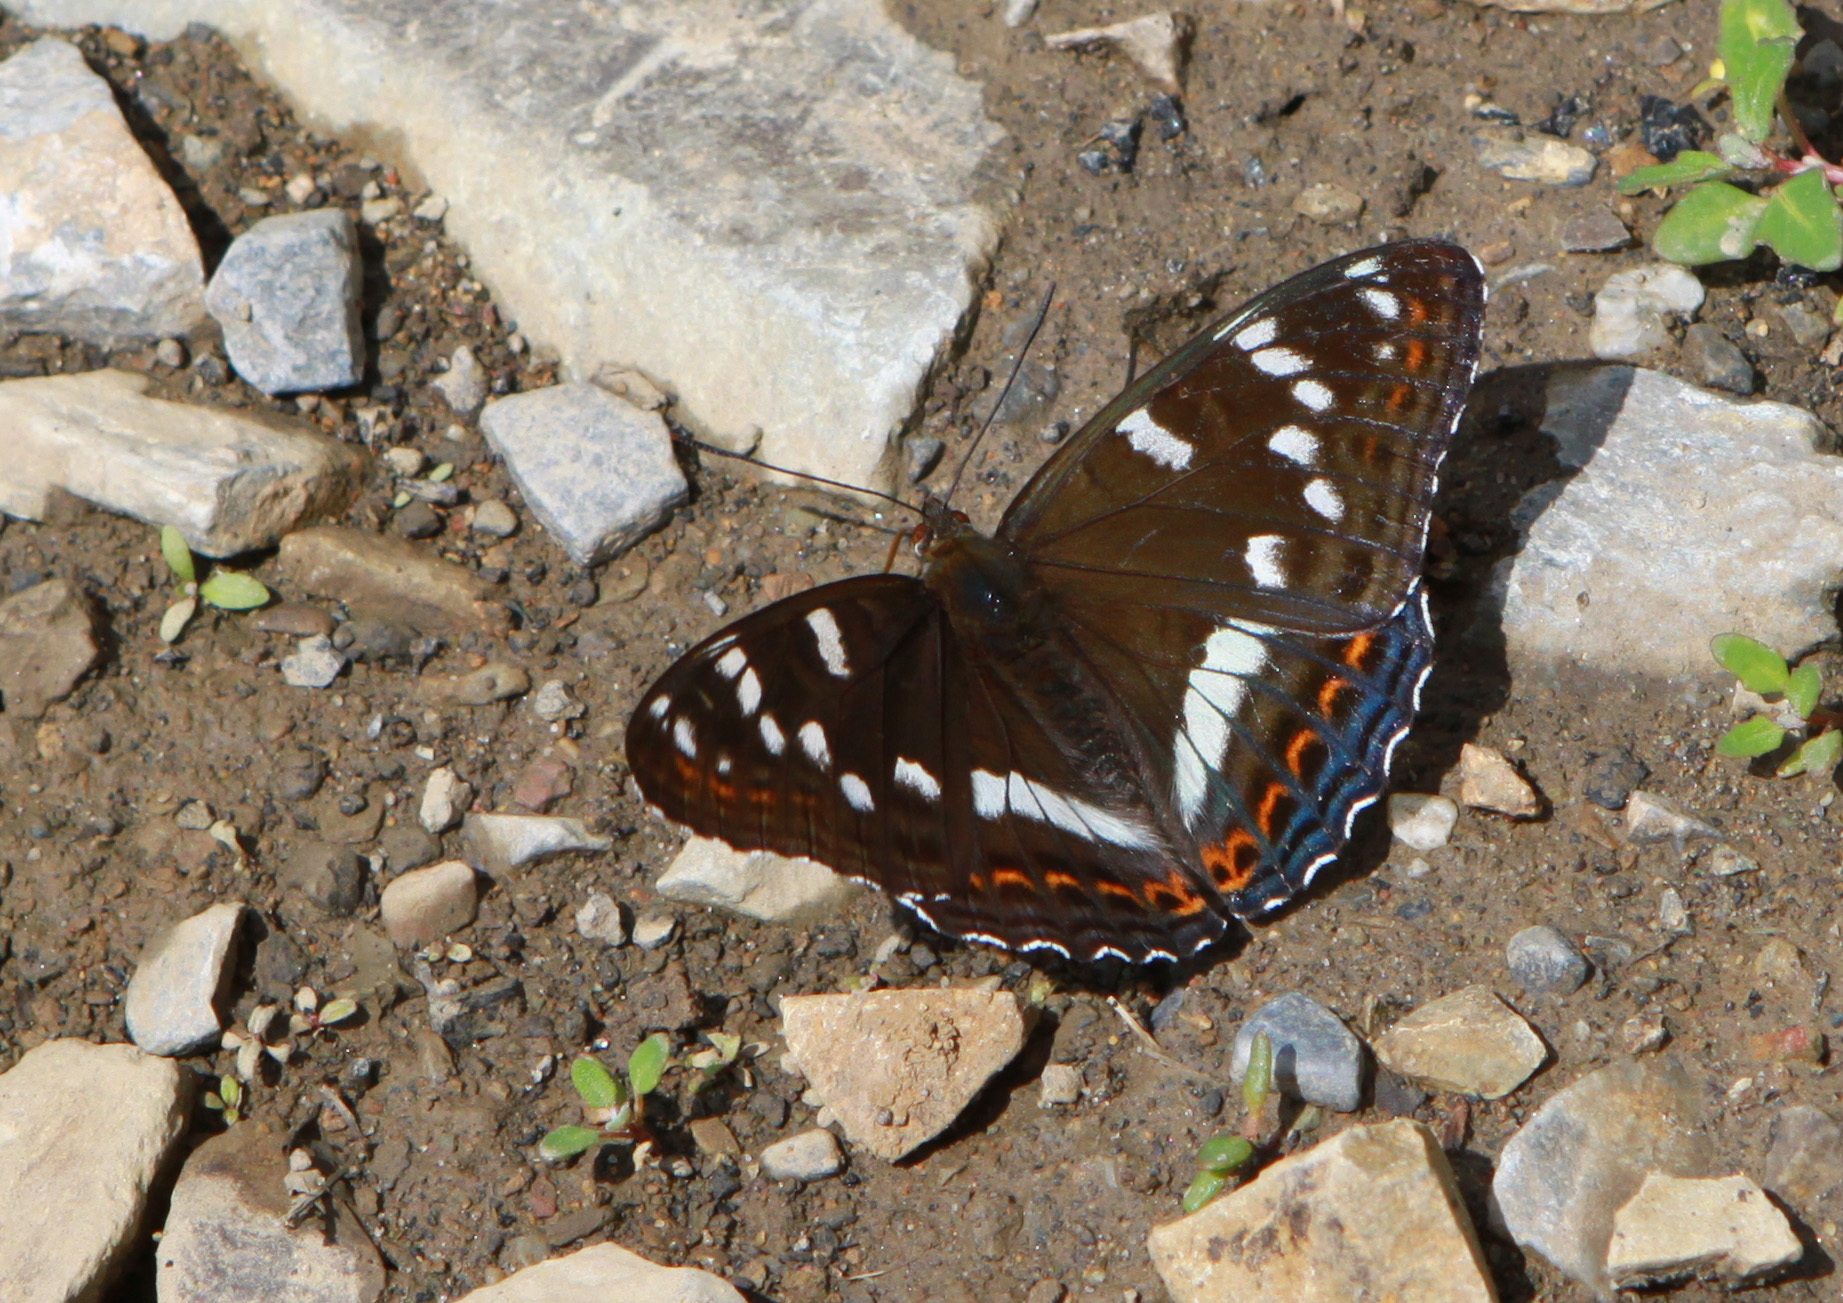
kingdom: Animalia
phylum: Arthropoda
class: Insecta
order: Lepidoptera
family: Nymphalidae
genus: Limenitis
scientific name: Limenitis populi
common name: Poplar admiral
